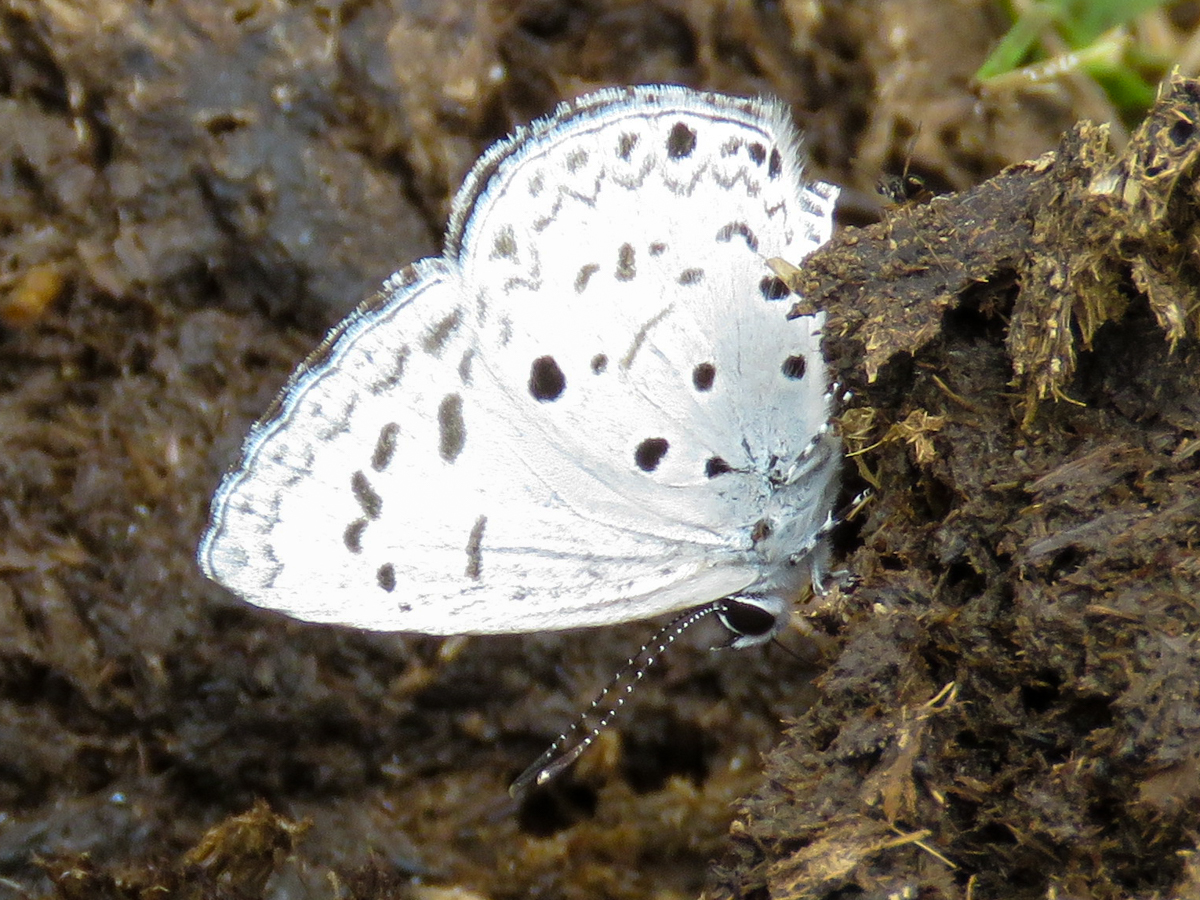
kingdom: Animalia
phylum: Arthropoda
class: Insecta
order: Lepidoptera
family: Lycaenidae
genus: Acytolepis
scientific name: Acytolepis puspa
